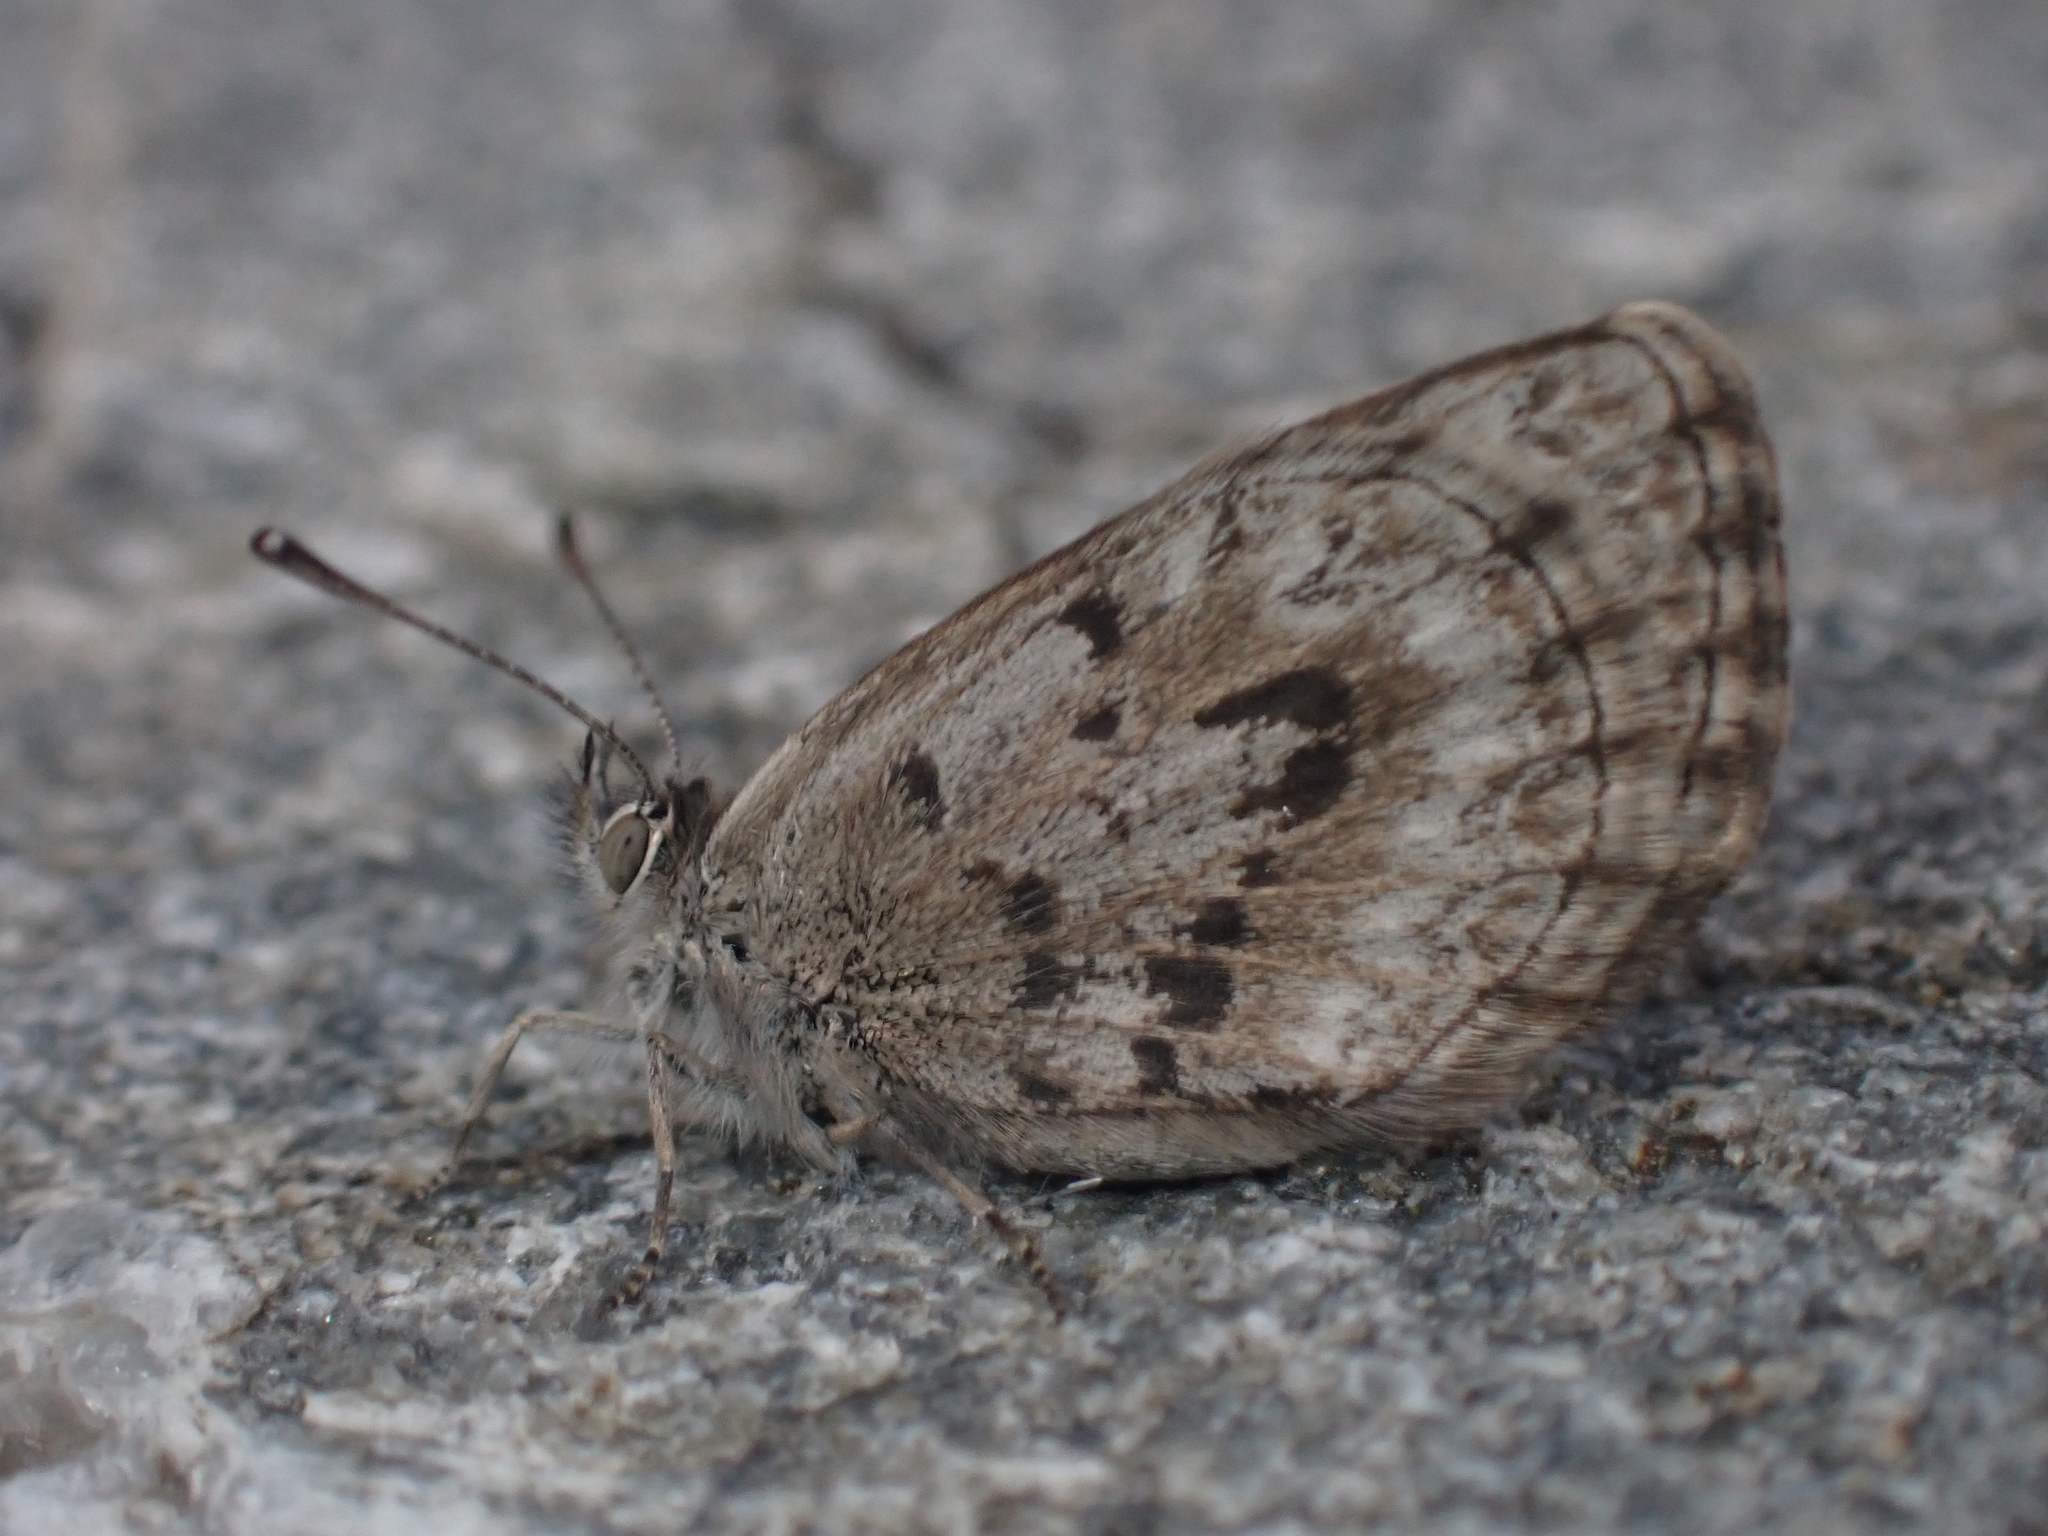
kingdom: Animalia
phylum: Arthropoda
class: Insecta
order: Lepidoptera
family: Lycaenidae
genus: Zizina
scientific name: Zizina oxleyi
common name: Southern blue
